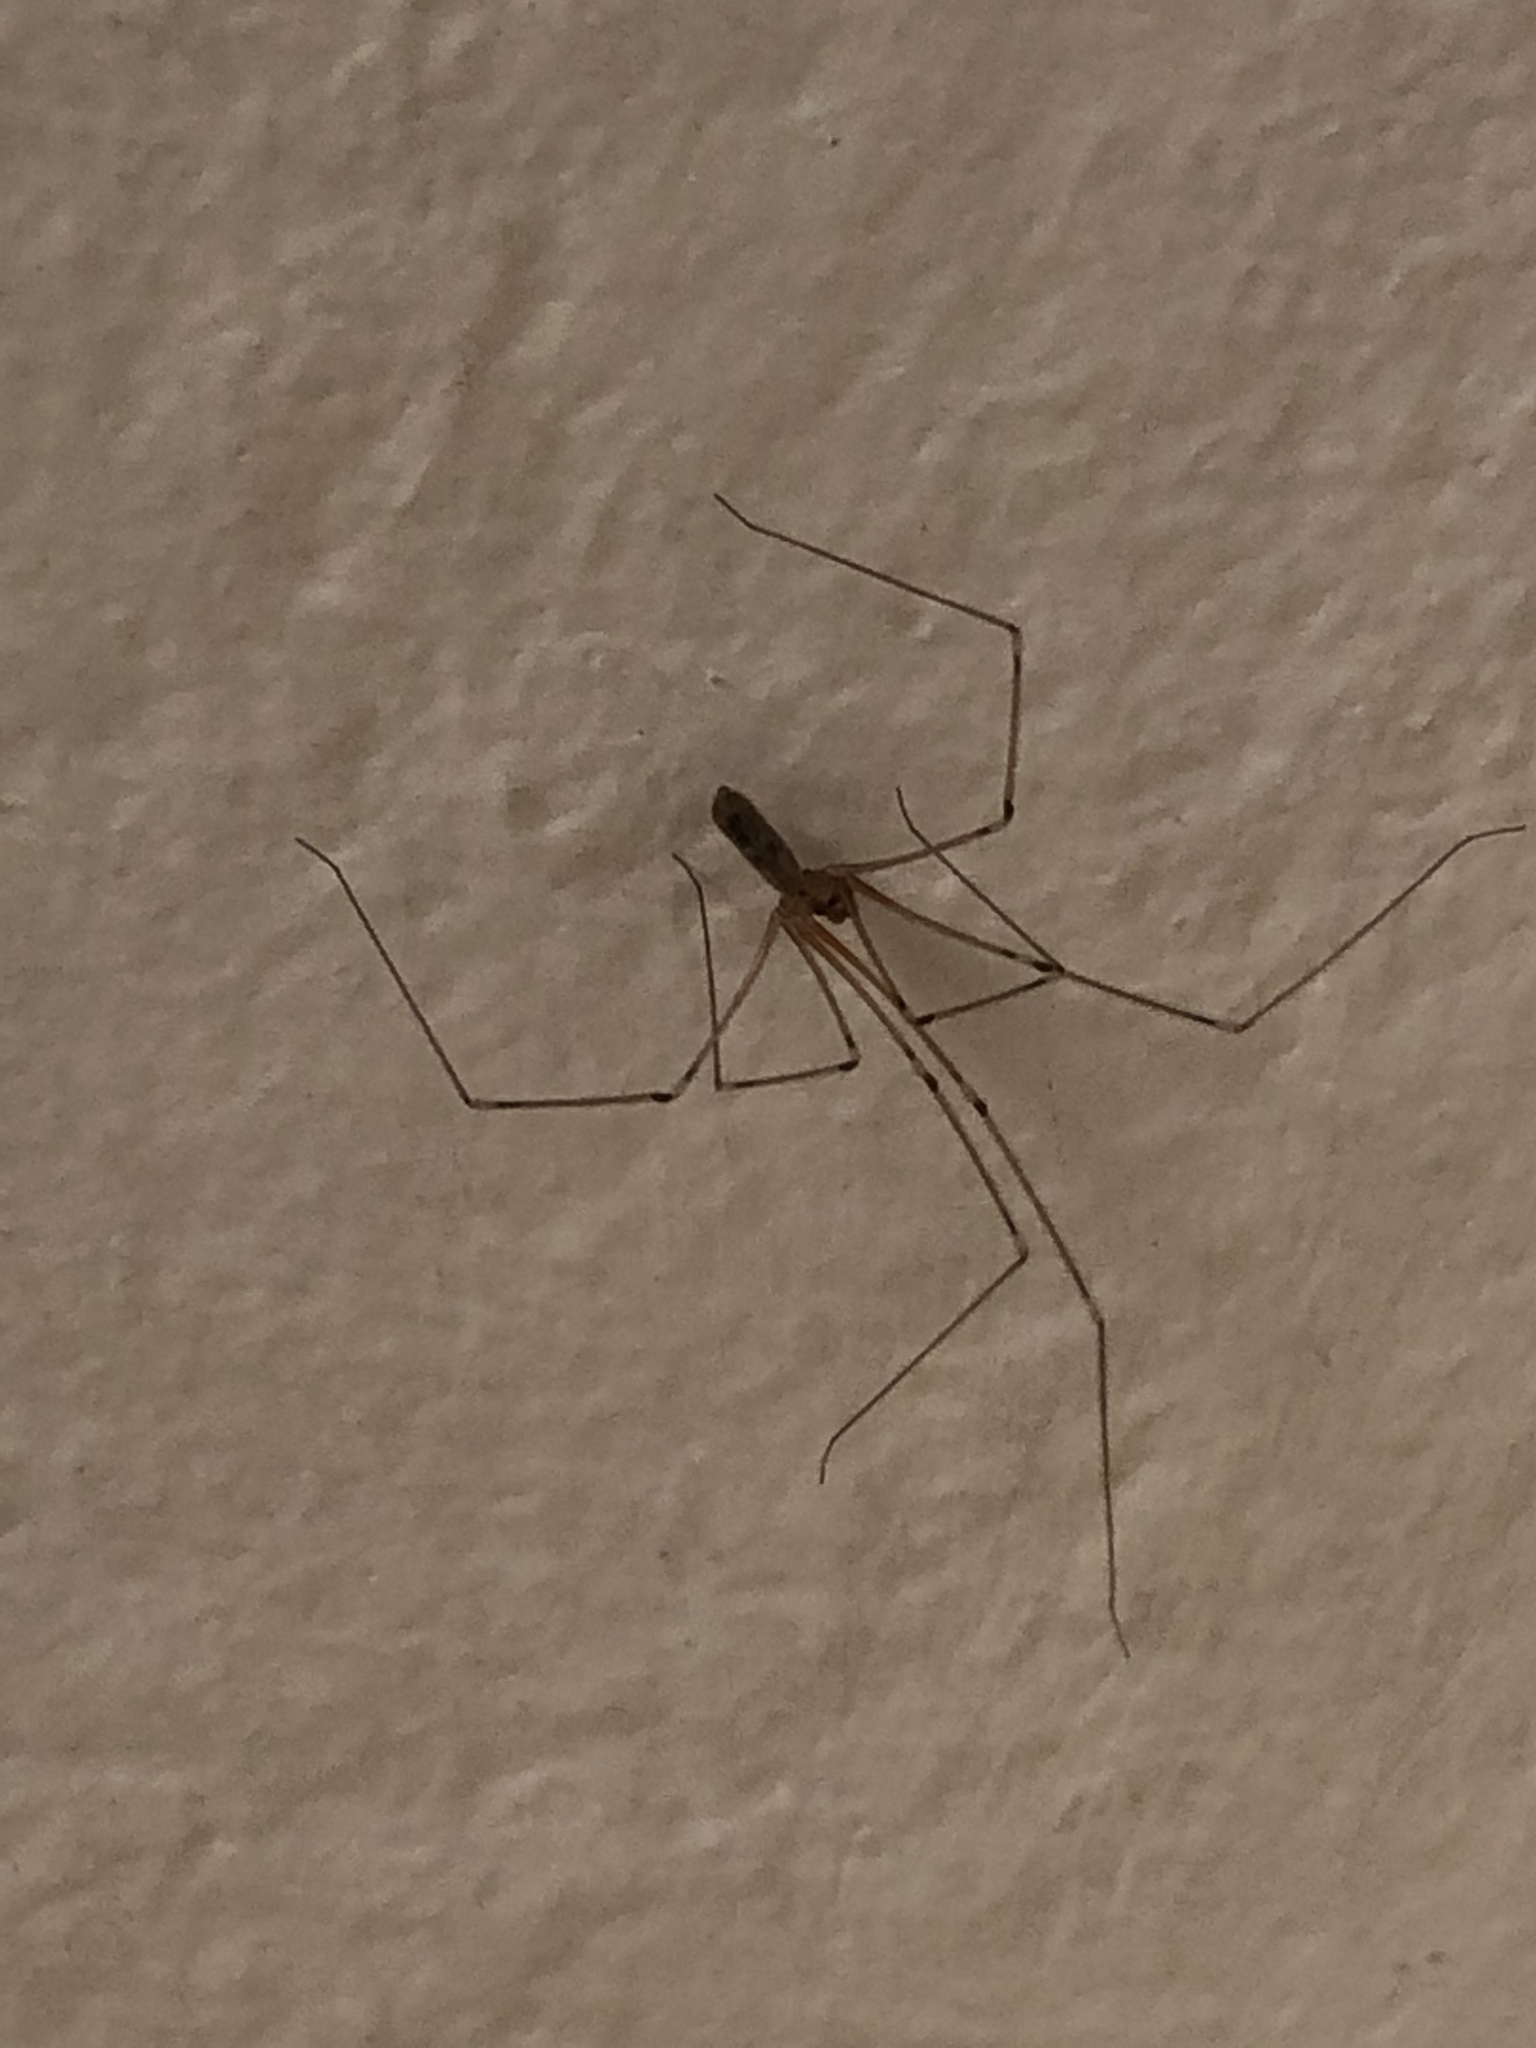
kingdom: Animalia
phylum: Arthropoda
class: Arachnida
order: Araneae
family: Pholcidae
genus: Pholcus
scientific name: Pholcus phalangioides
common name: Longbodied cellar spider
